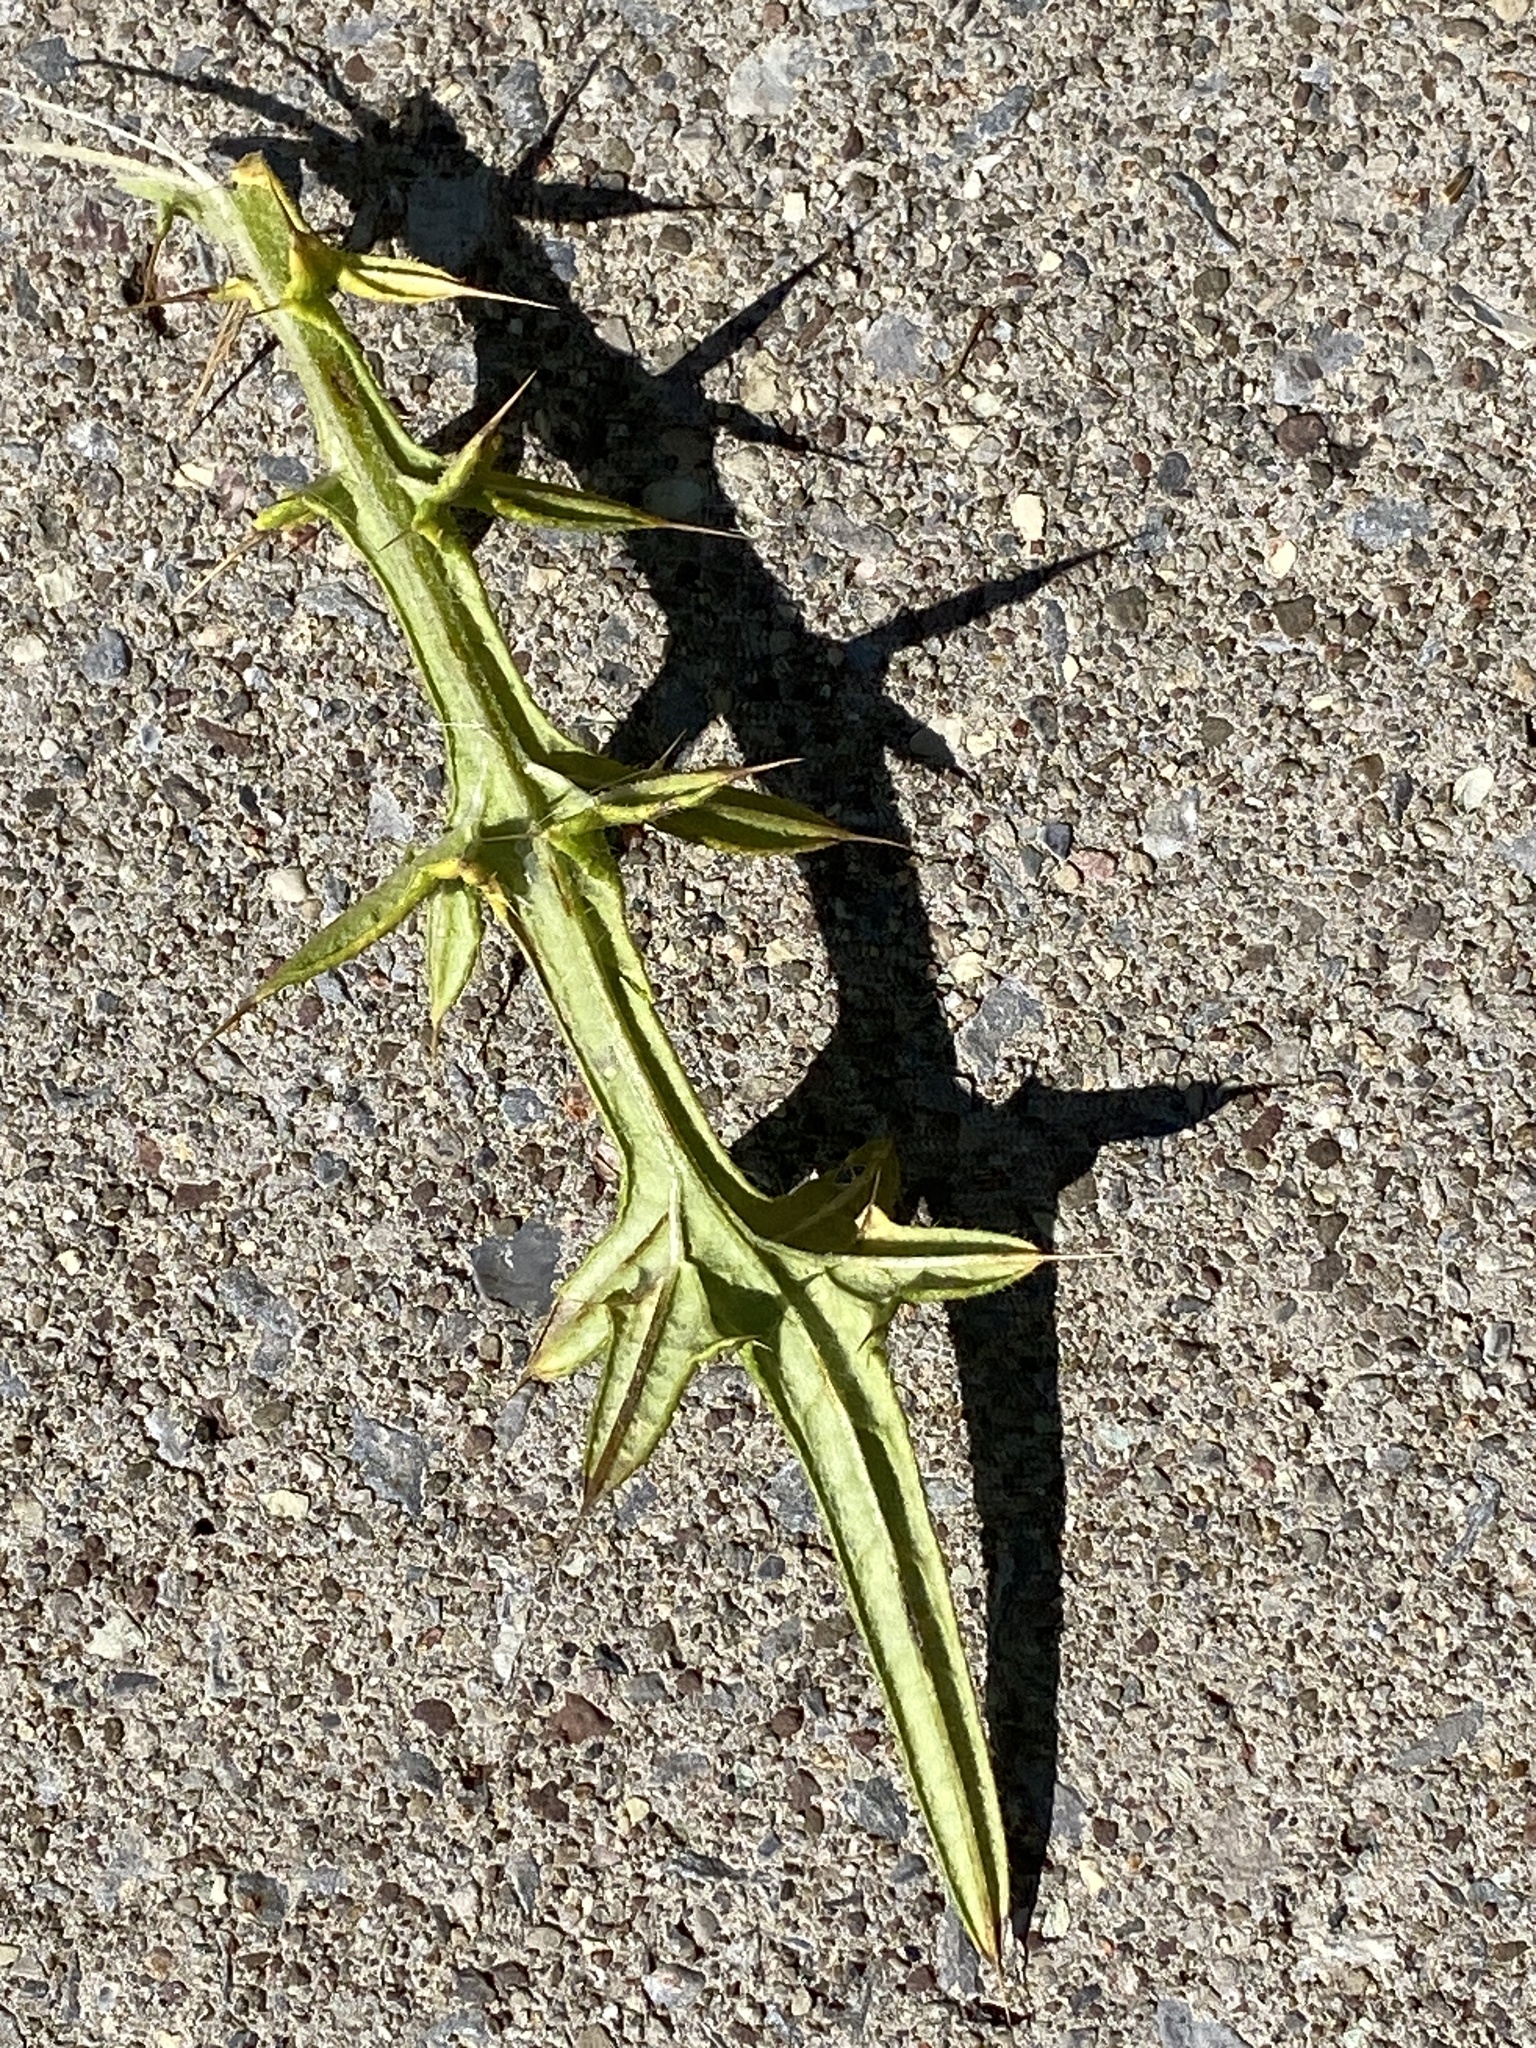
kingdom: Plantae
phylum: Tracheophyta
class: Magnoliopsida
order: Asterales
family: Asteraceae
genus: Cirsium
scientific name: Cirsium vulgare
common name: Bull thistle
